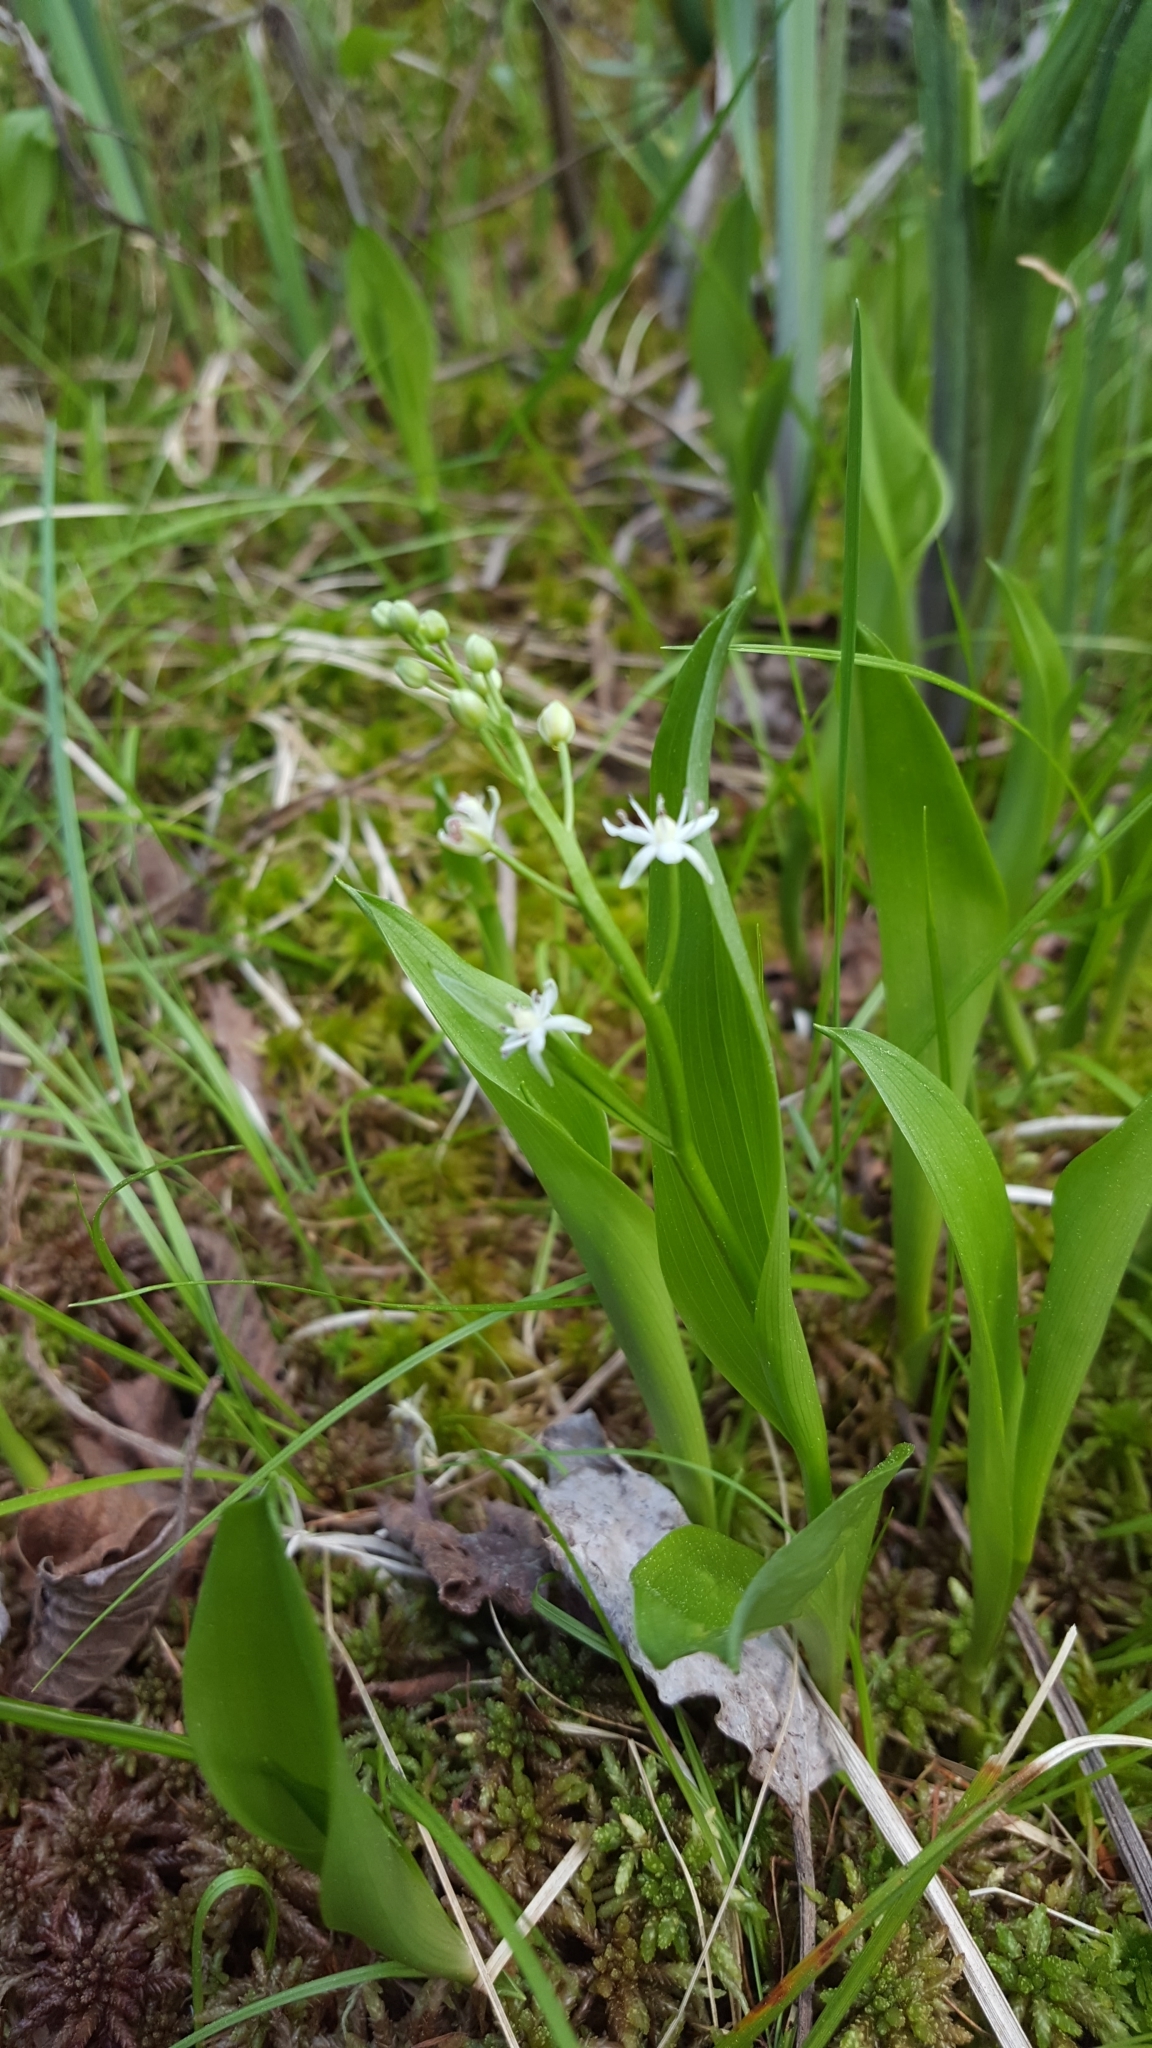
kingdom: Plantae
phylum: Tracheophyta
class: Liliopsida
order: Asparagales
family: Asparagaceae
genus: Maianthemum
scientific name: Maianthemum trifolium
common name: Swamp false solomon's seal
